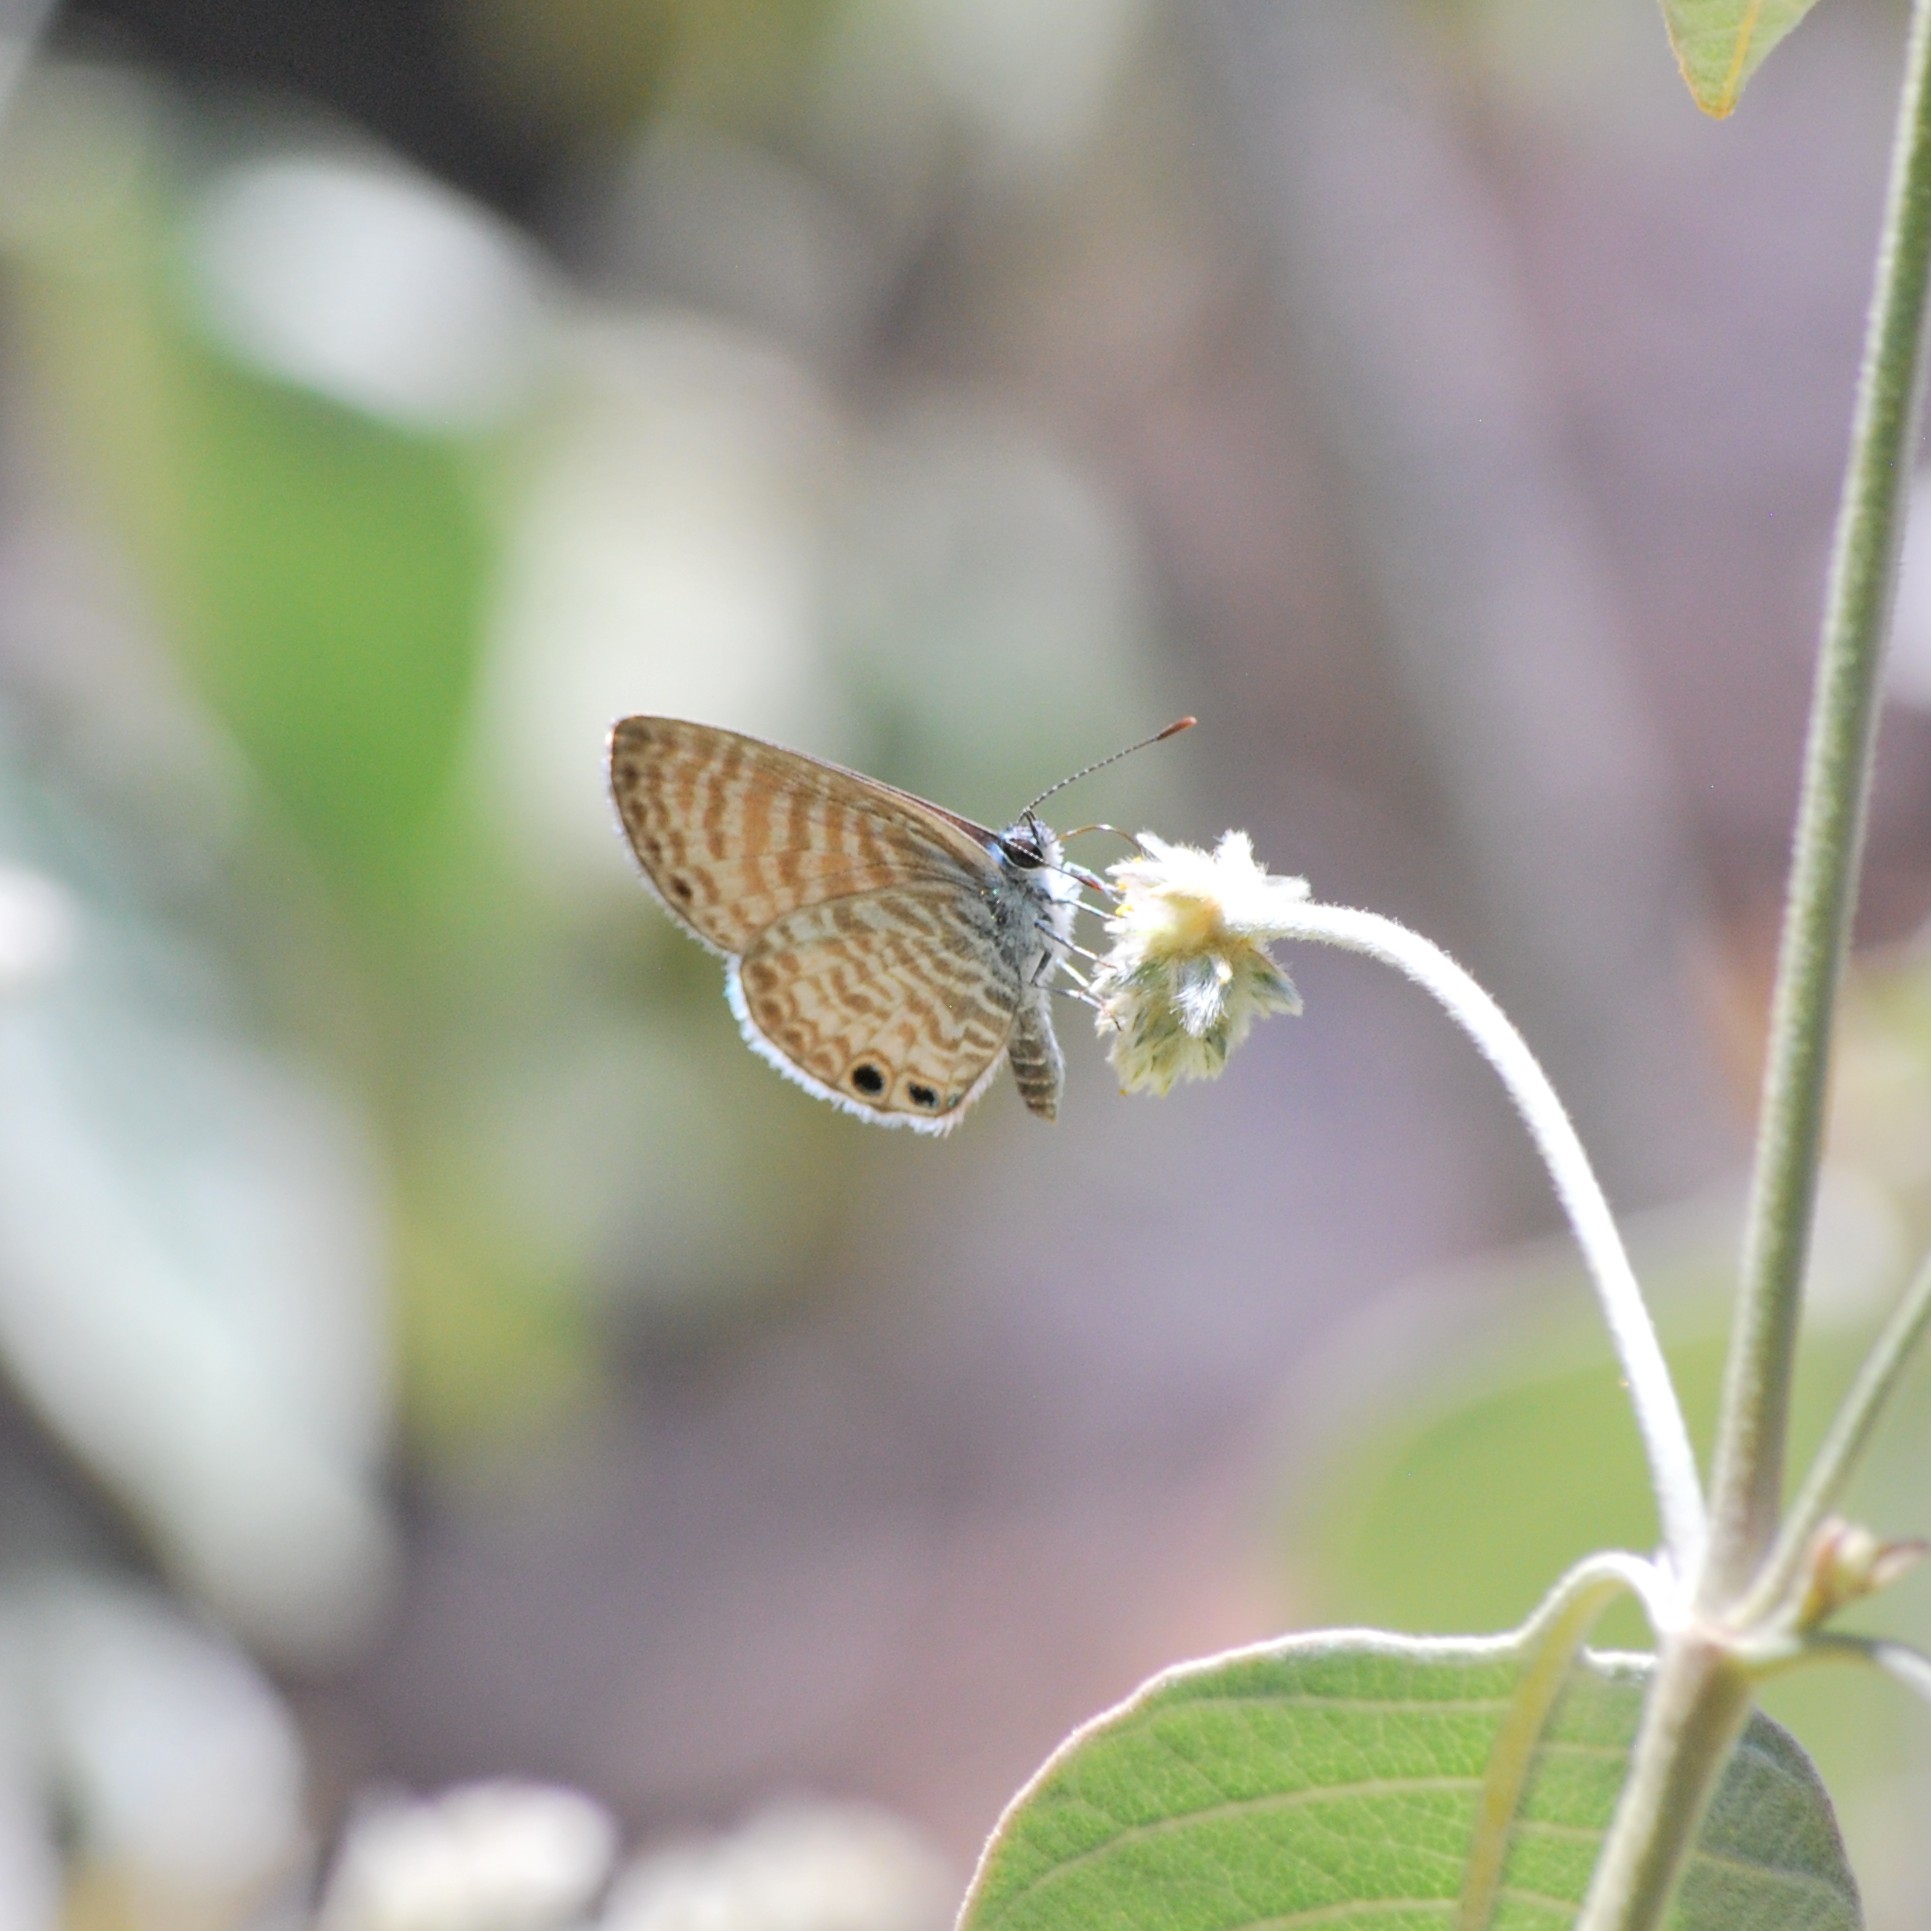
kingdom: Animalia
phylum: Arthropoda
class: Insecta
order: Lepidoptera
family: Lycaenidae
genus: Leptotes
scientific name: Leptotes marina
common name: Marine blue
